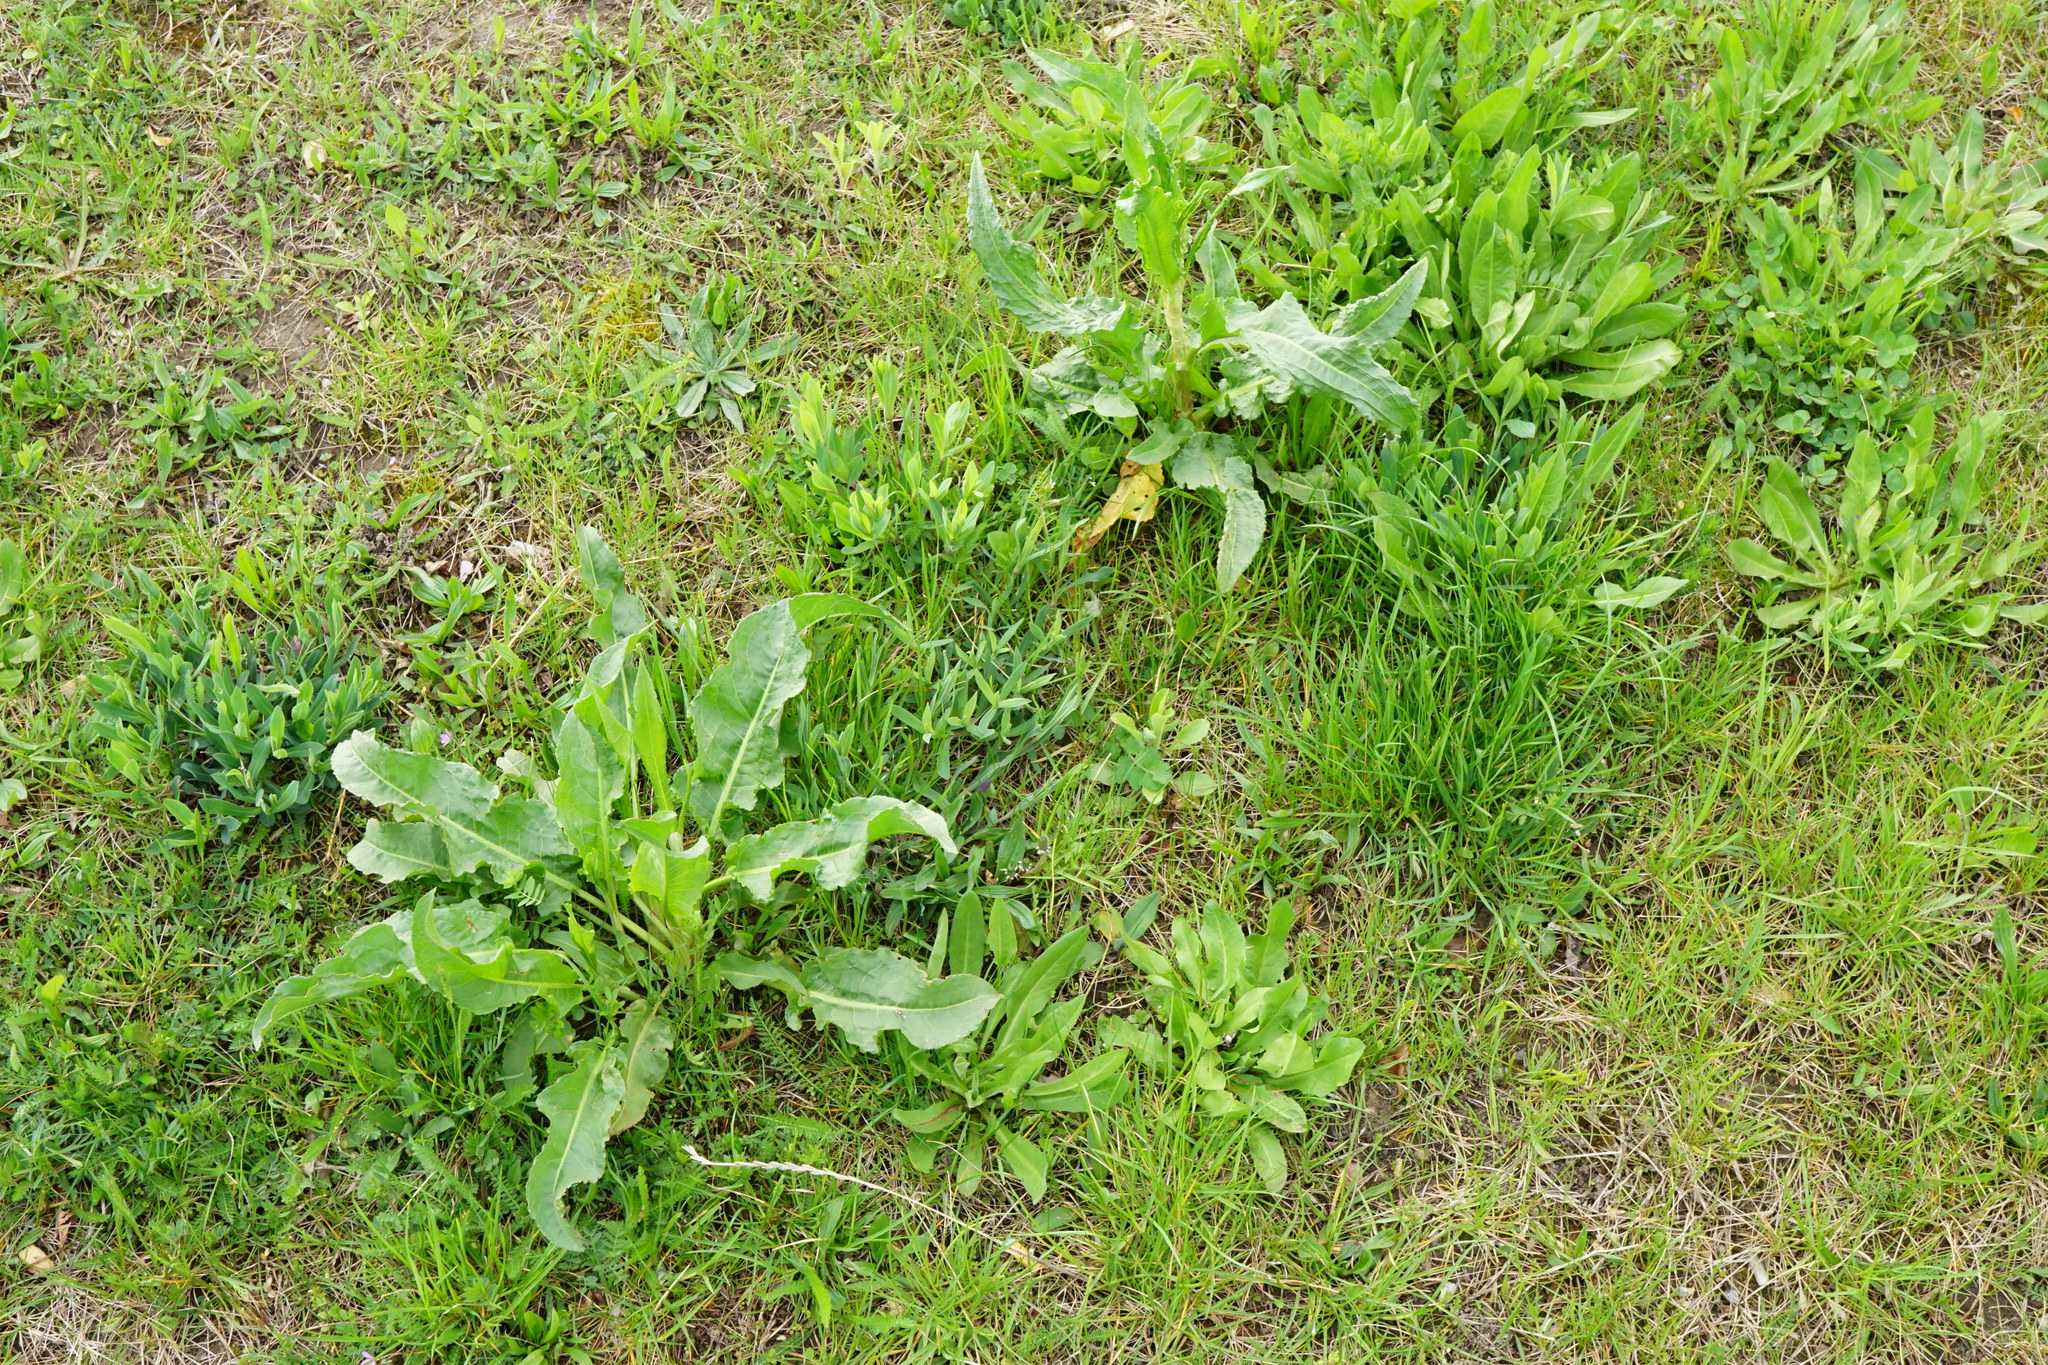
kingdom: Plantae
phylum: Tracheophyta
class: Magnoliopsida
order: Caryophyllales
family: Polygonaceae
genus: Rumex
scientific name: Rumex crispus
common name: Curled dock
